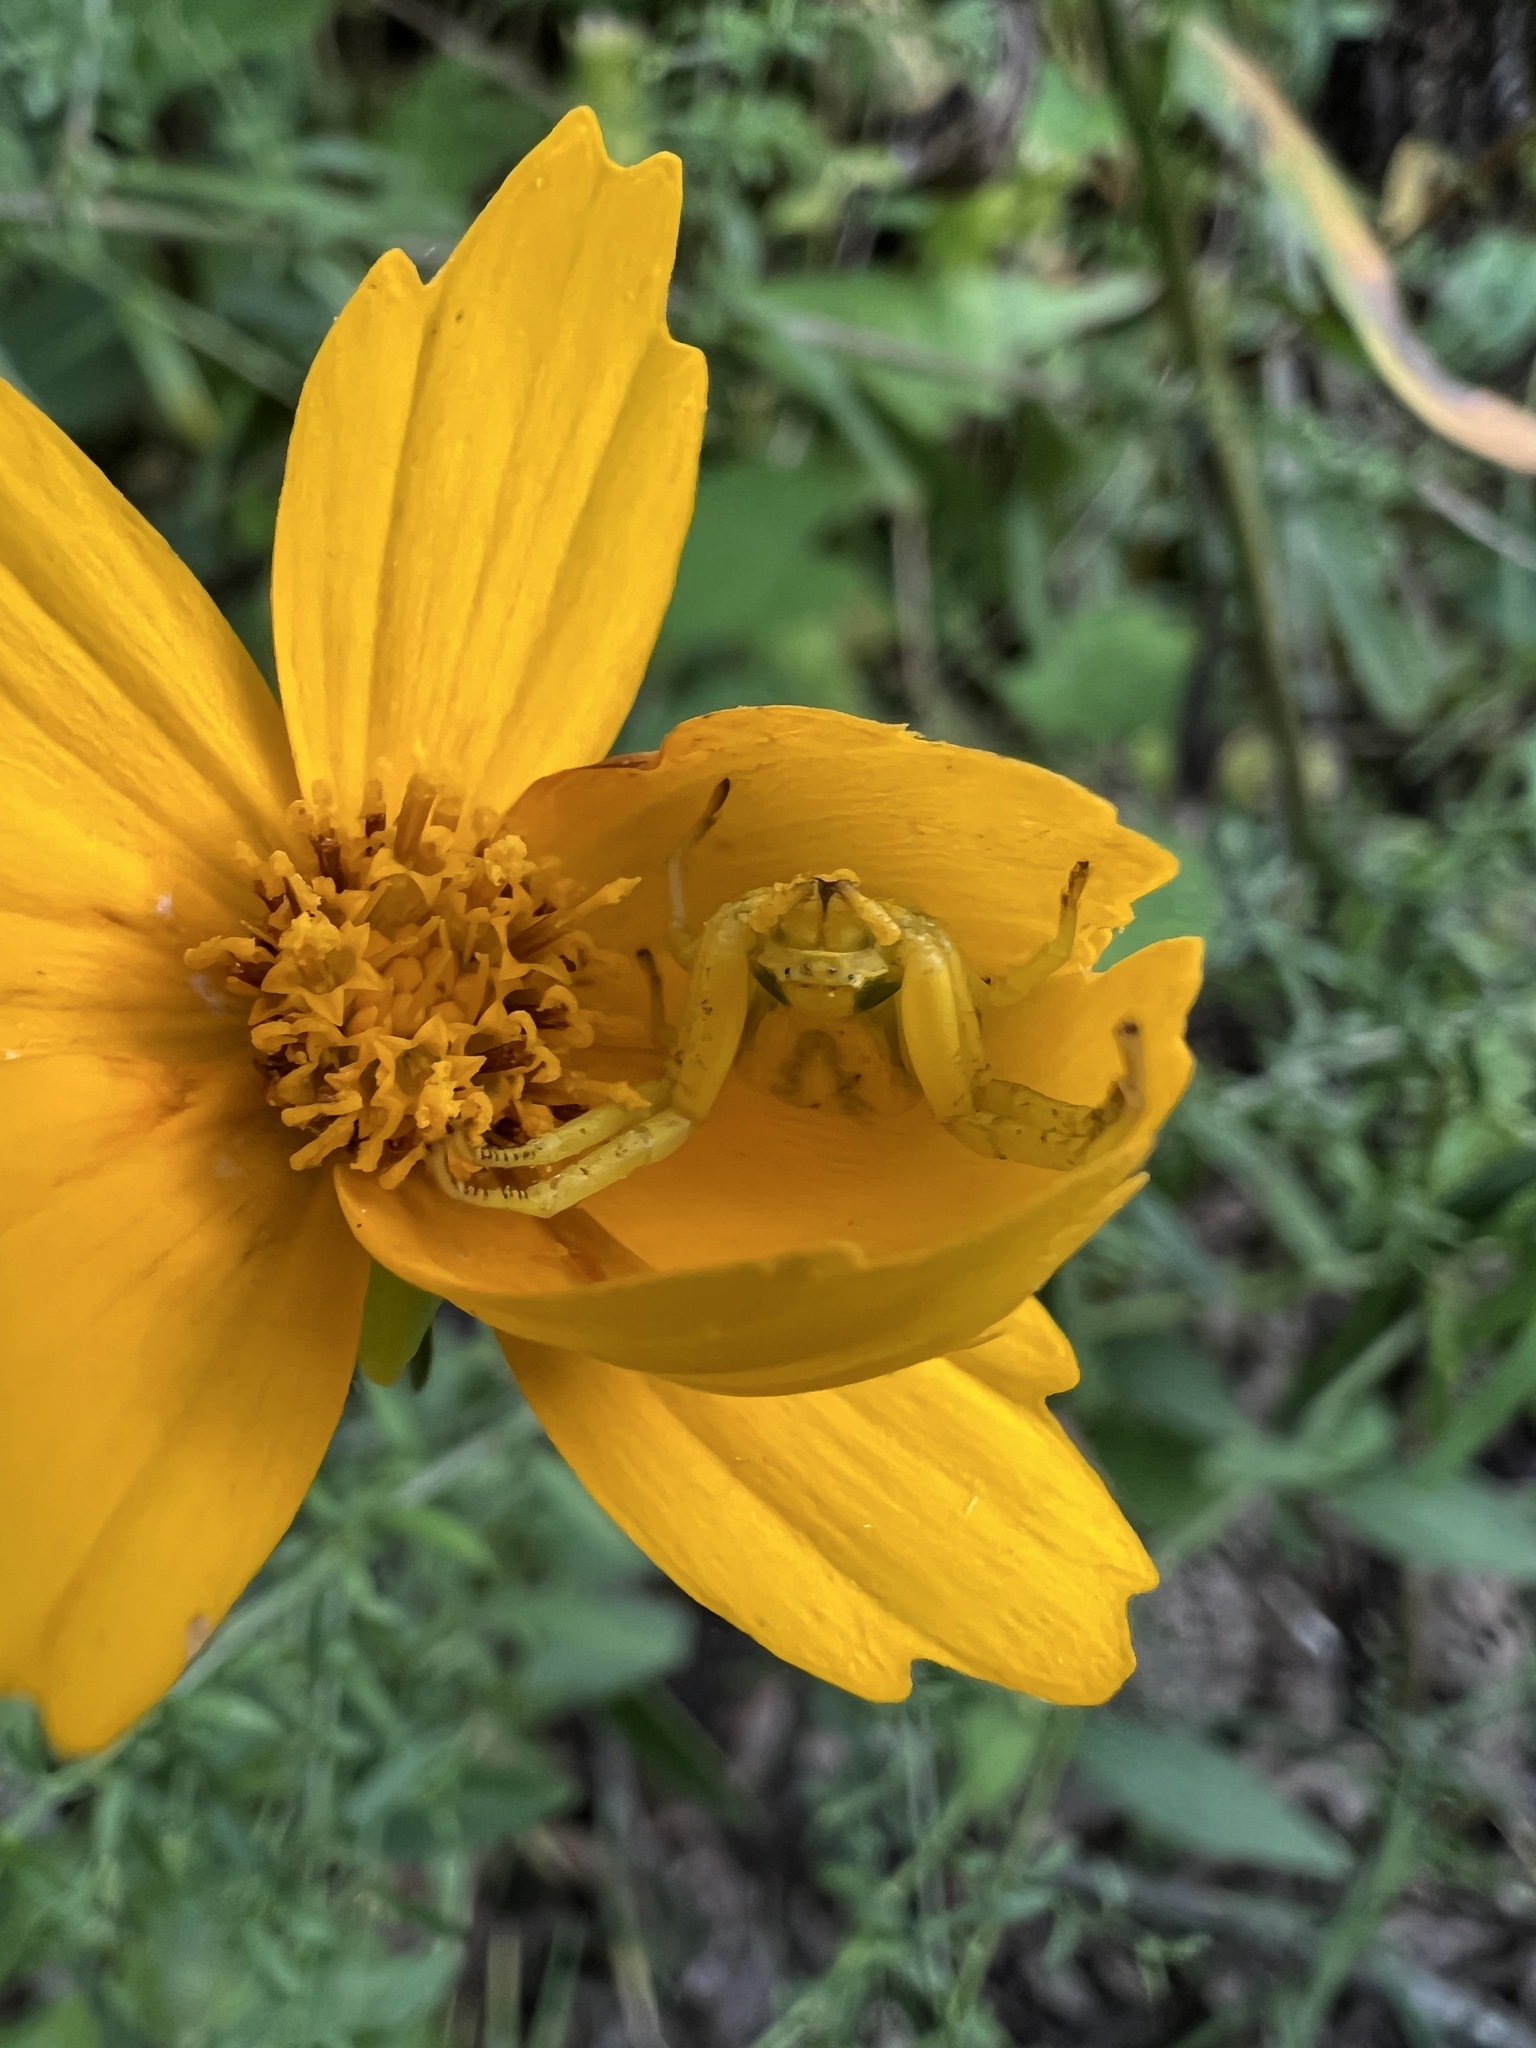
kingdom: Animalia
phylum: Arthropoda
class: Arachnida
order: Araneae
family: Thomisidae
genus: Misumenoides
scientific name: Misumenoides formosipes
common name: White-banded crab spider
